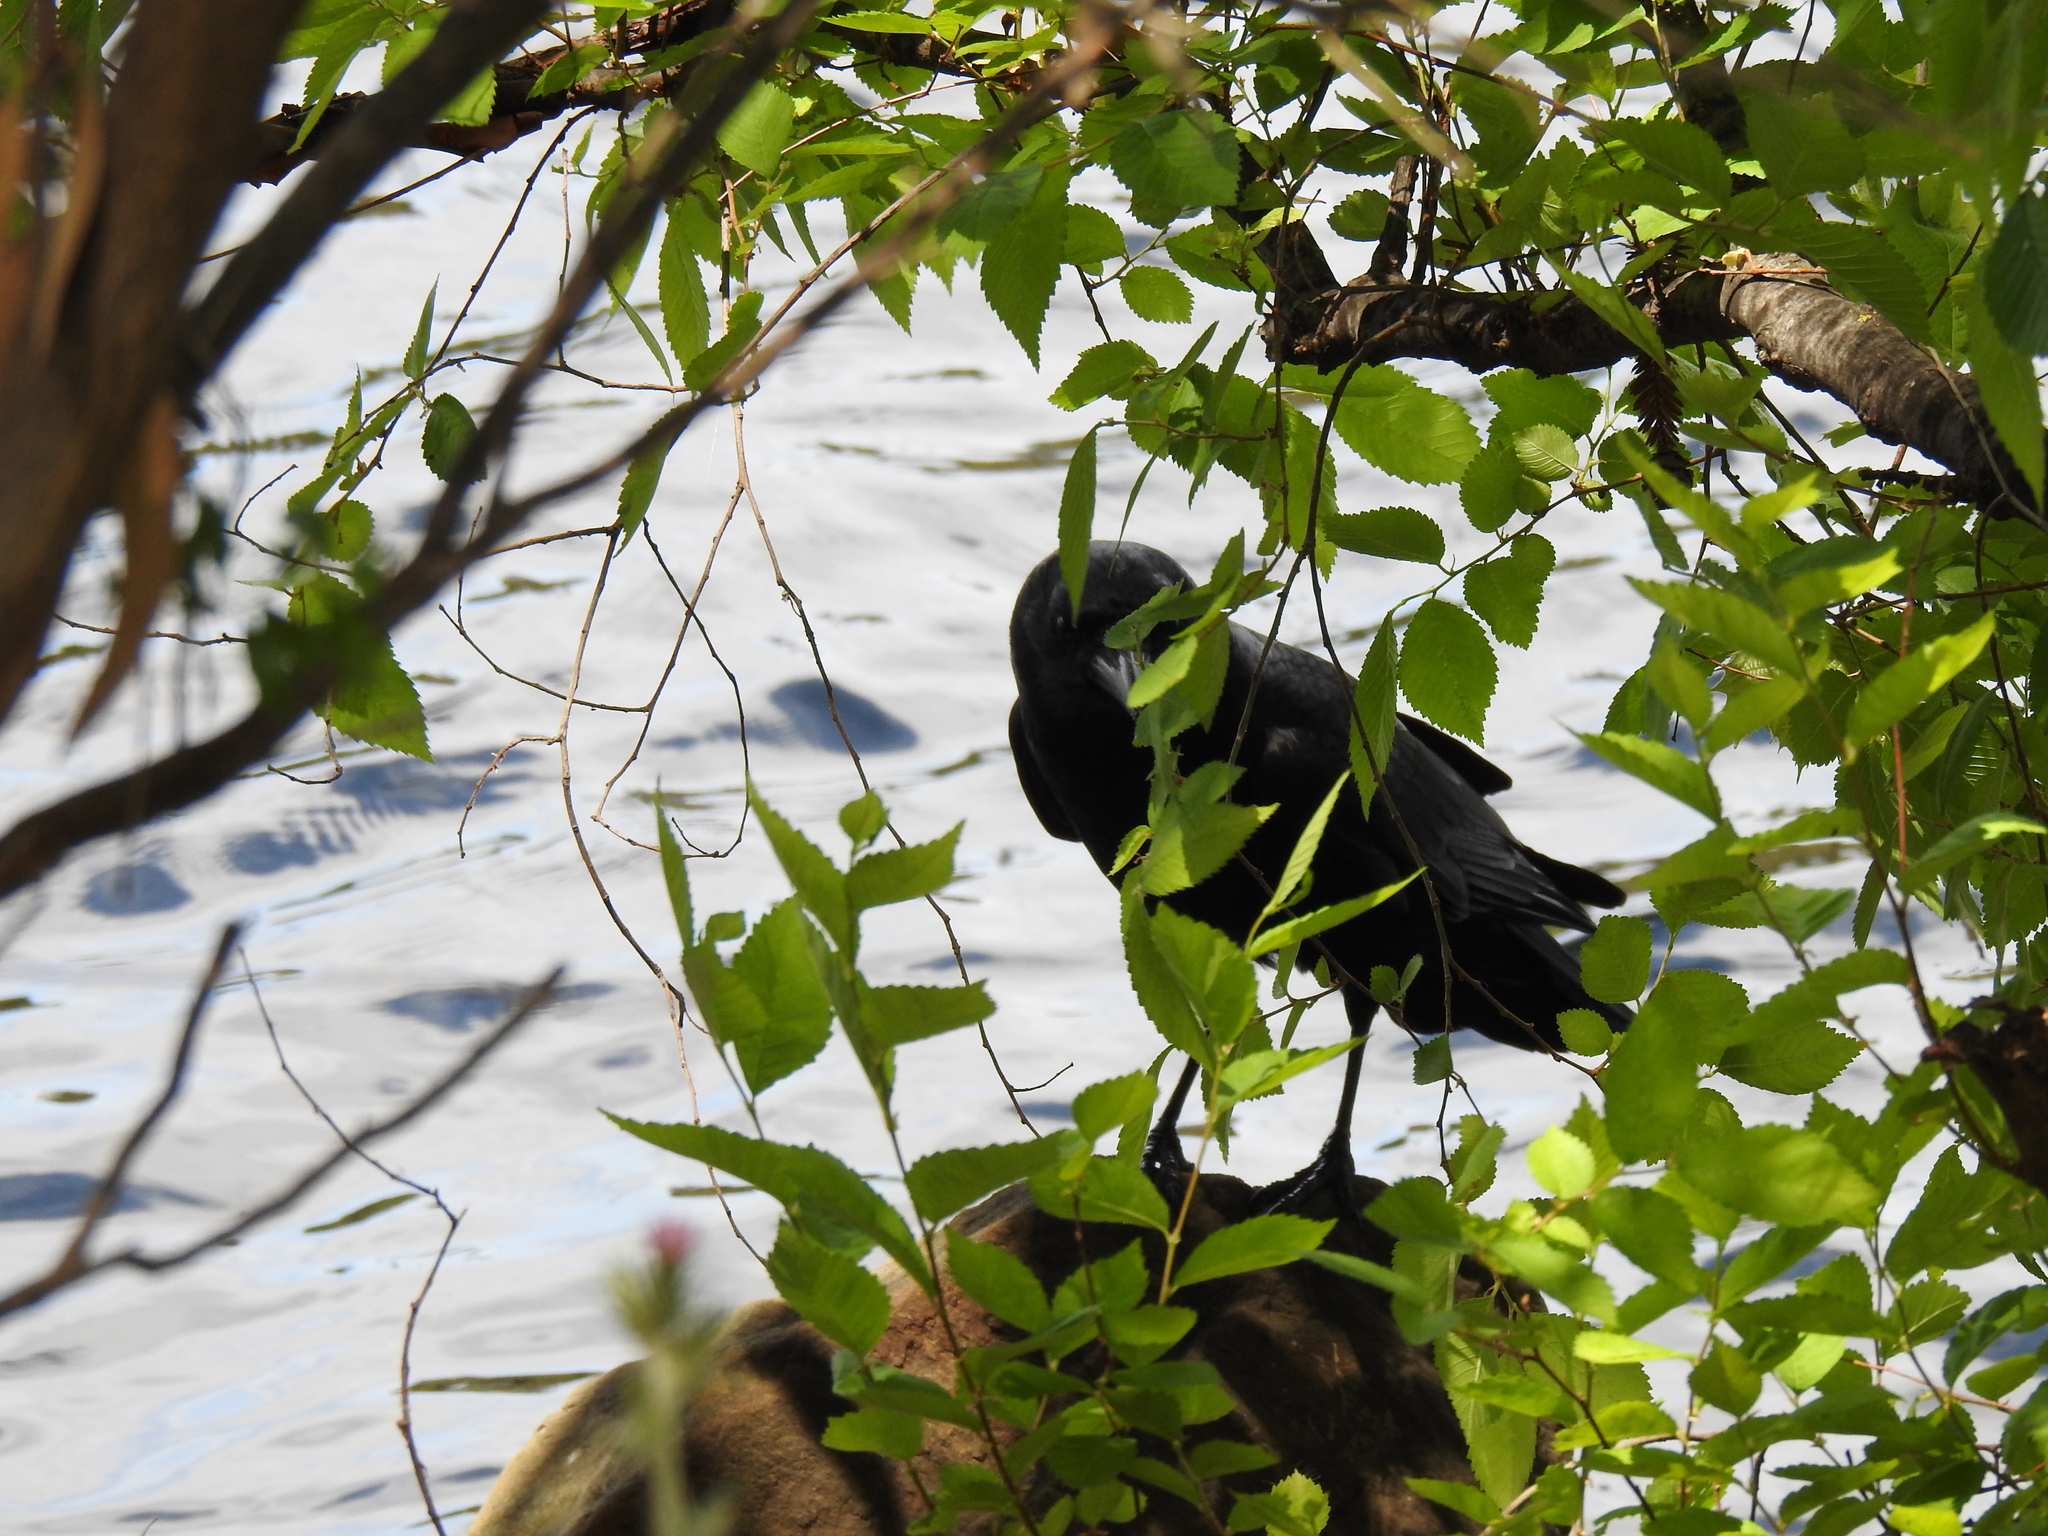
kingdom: Animalia
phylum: Chordata
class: Aves
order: Passeriformes
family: Corvidae
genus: Corvus
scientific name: Corvus brachyrhynchos
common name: American crow
